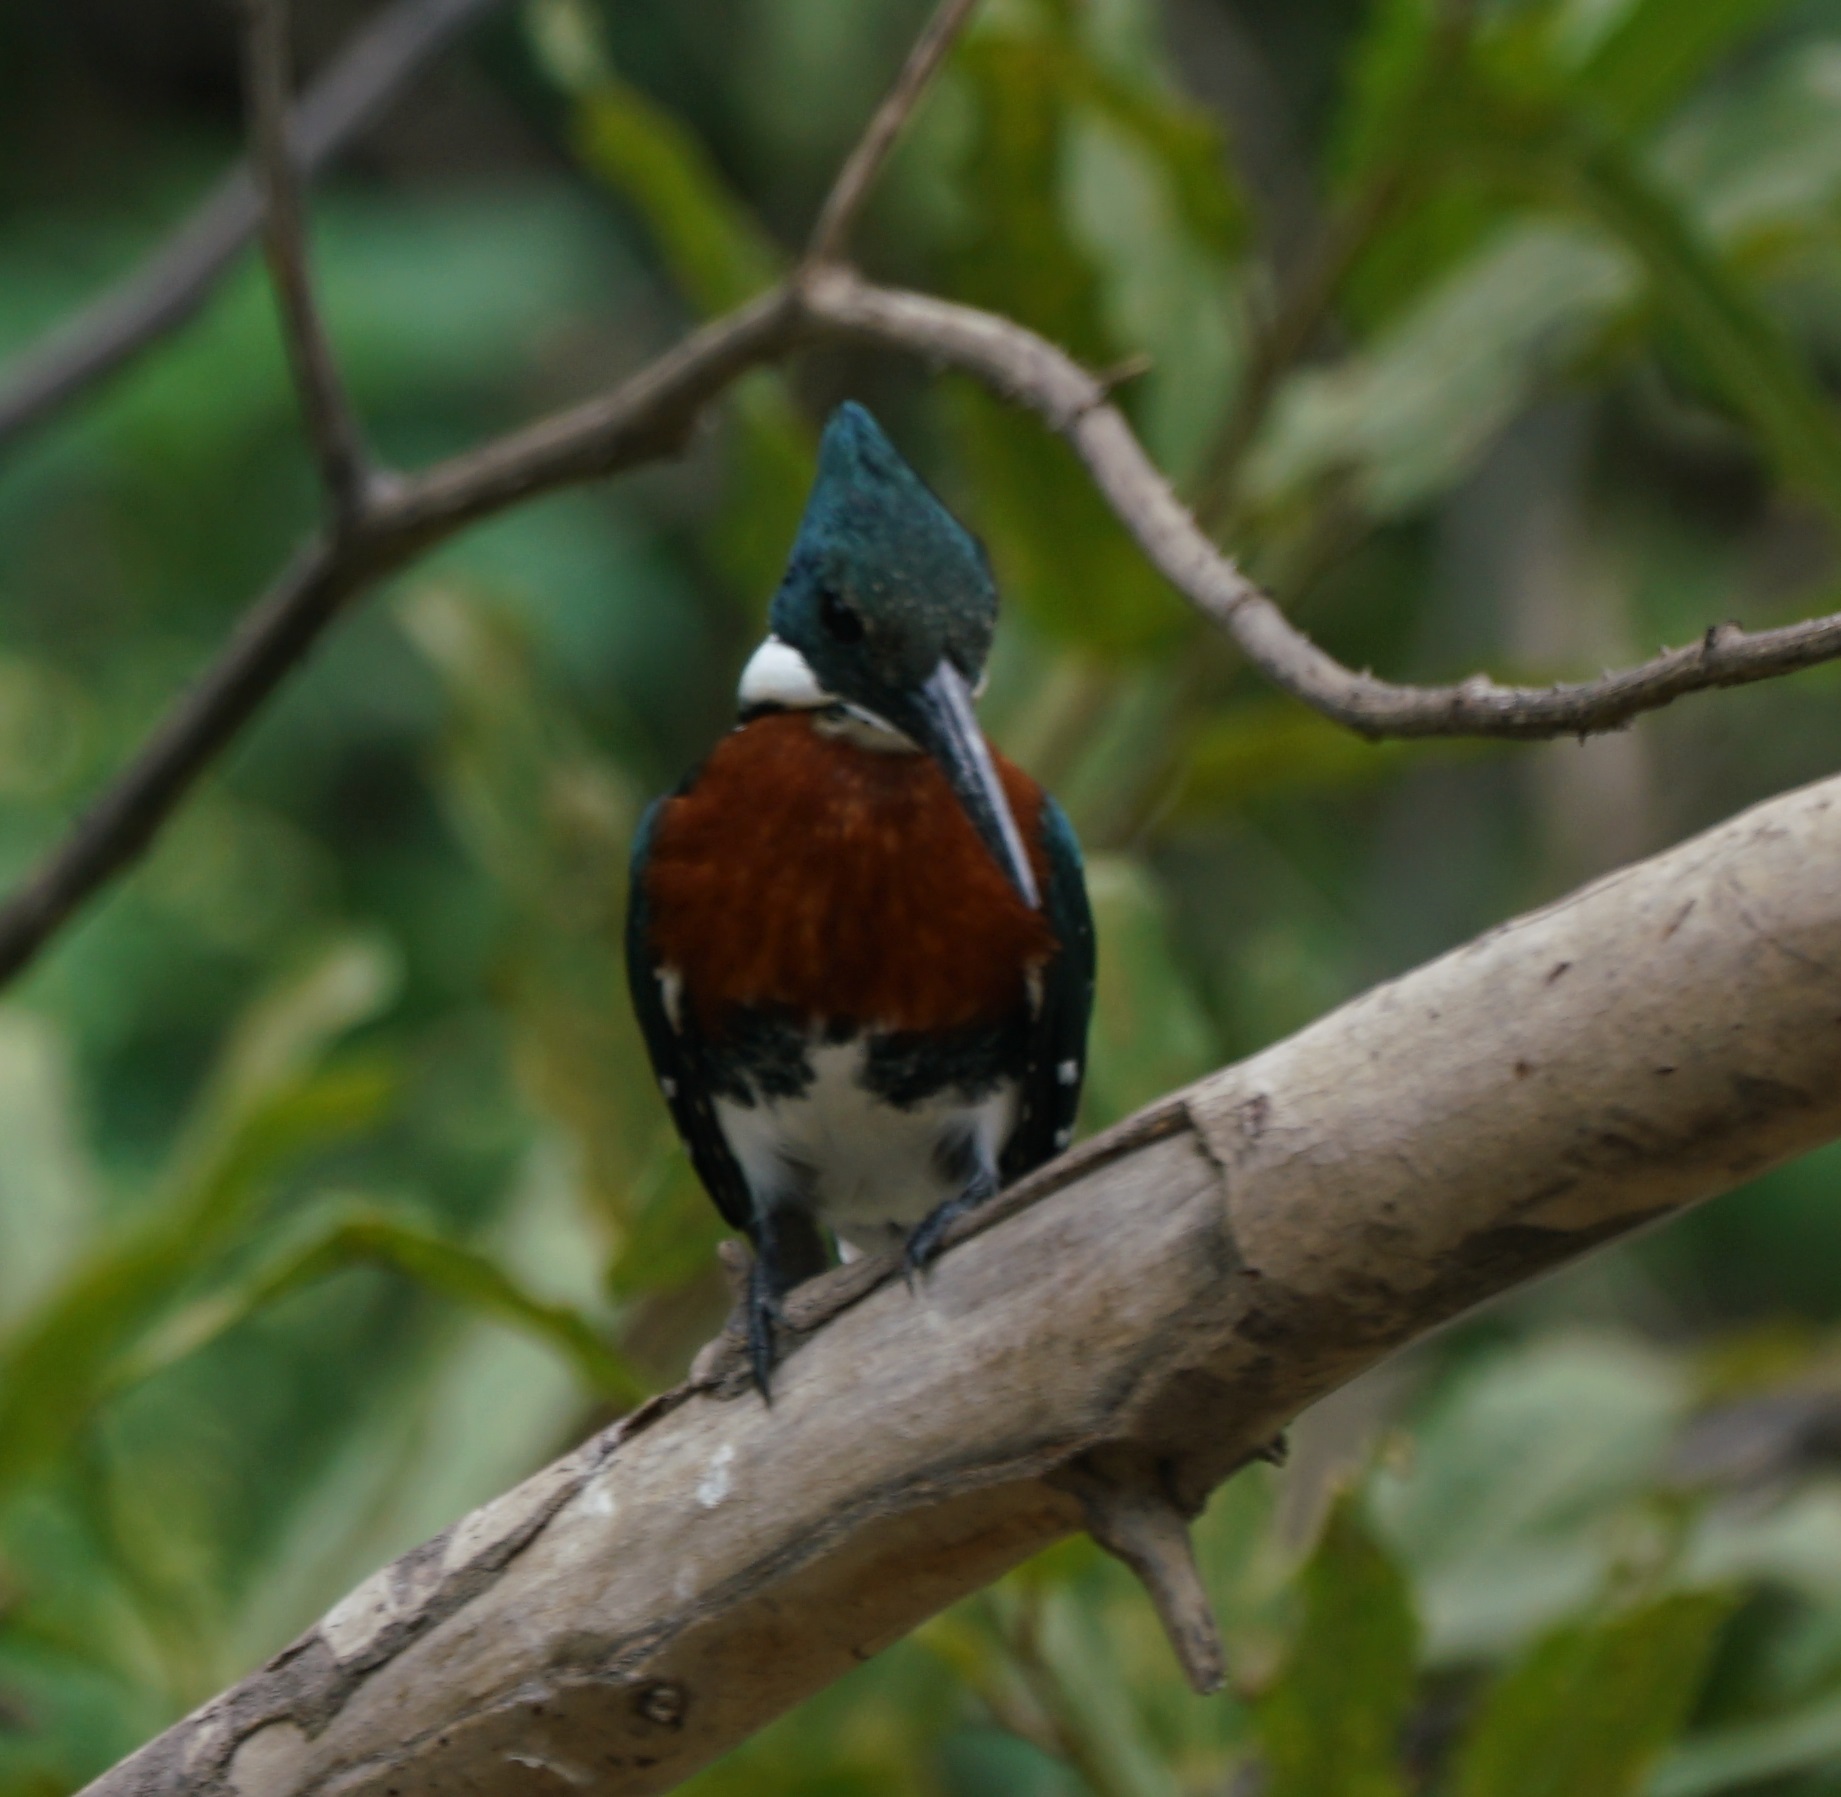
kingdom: Animalia
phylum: Chordata
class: Aves
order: Coraciiformes
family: Alcedinidae
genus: Chloroceryle
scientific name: Chloroceryle americana
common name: Green kingfisher
